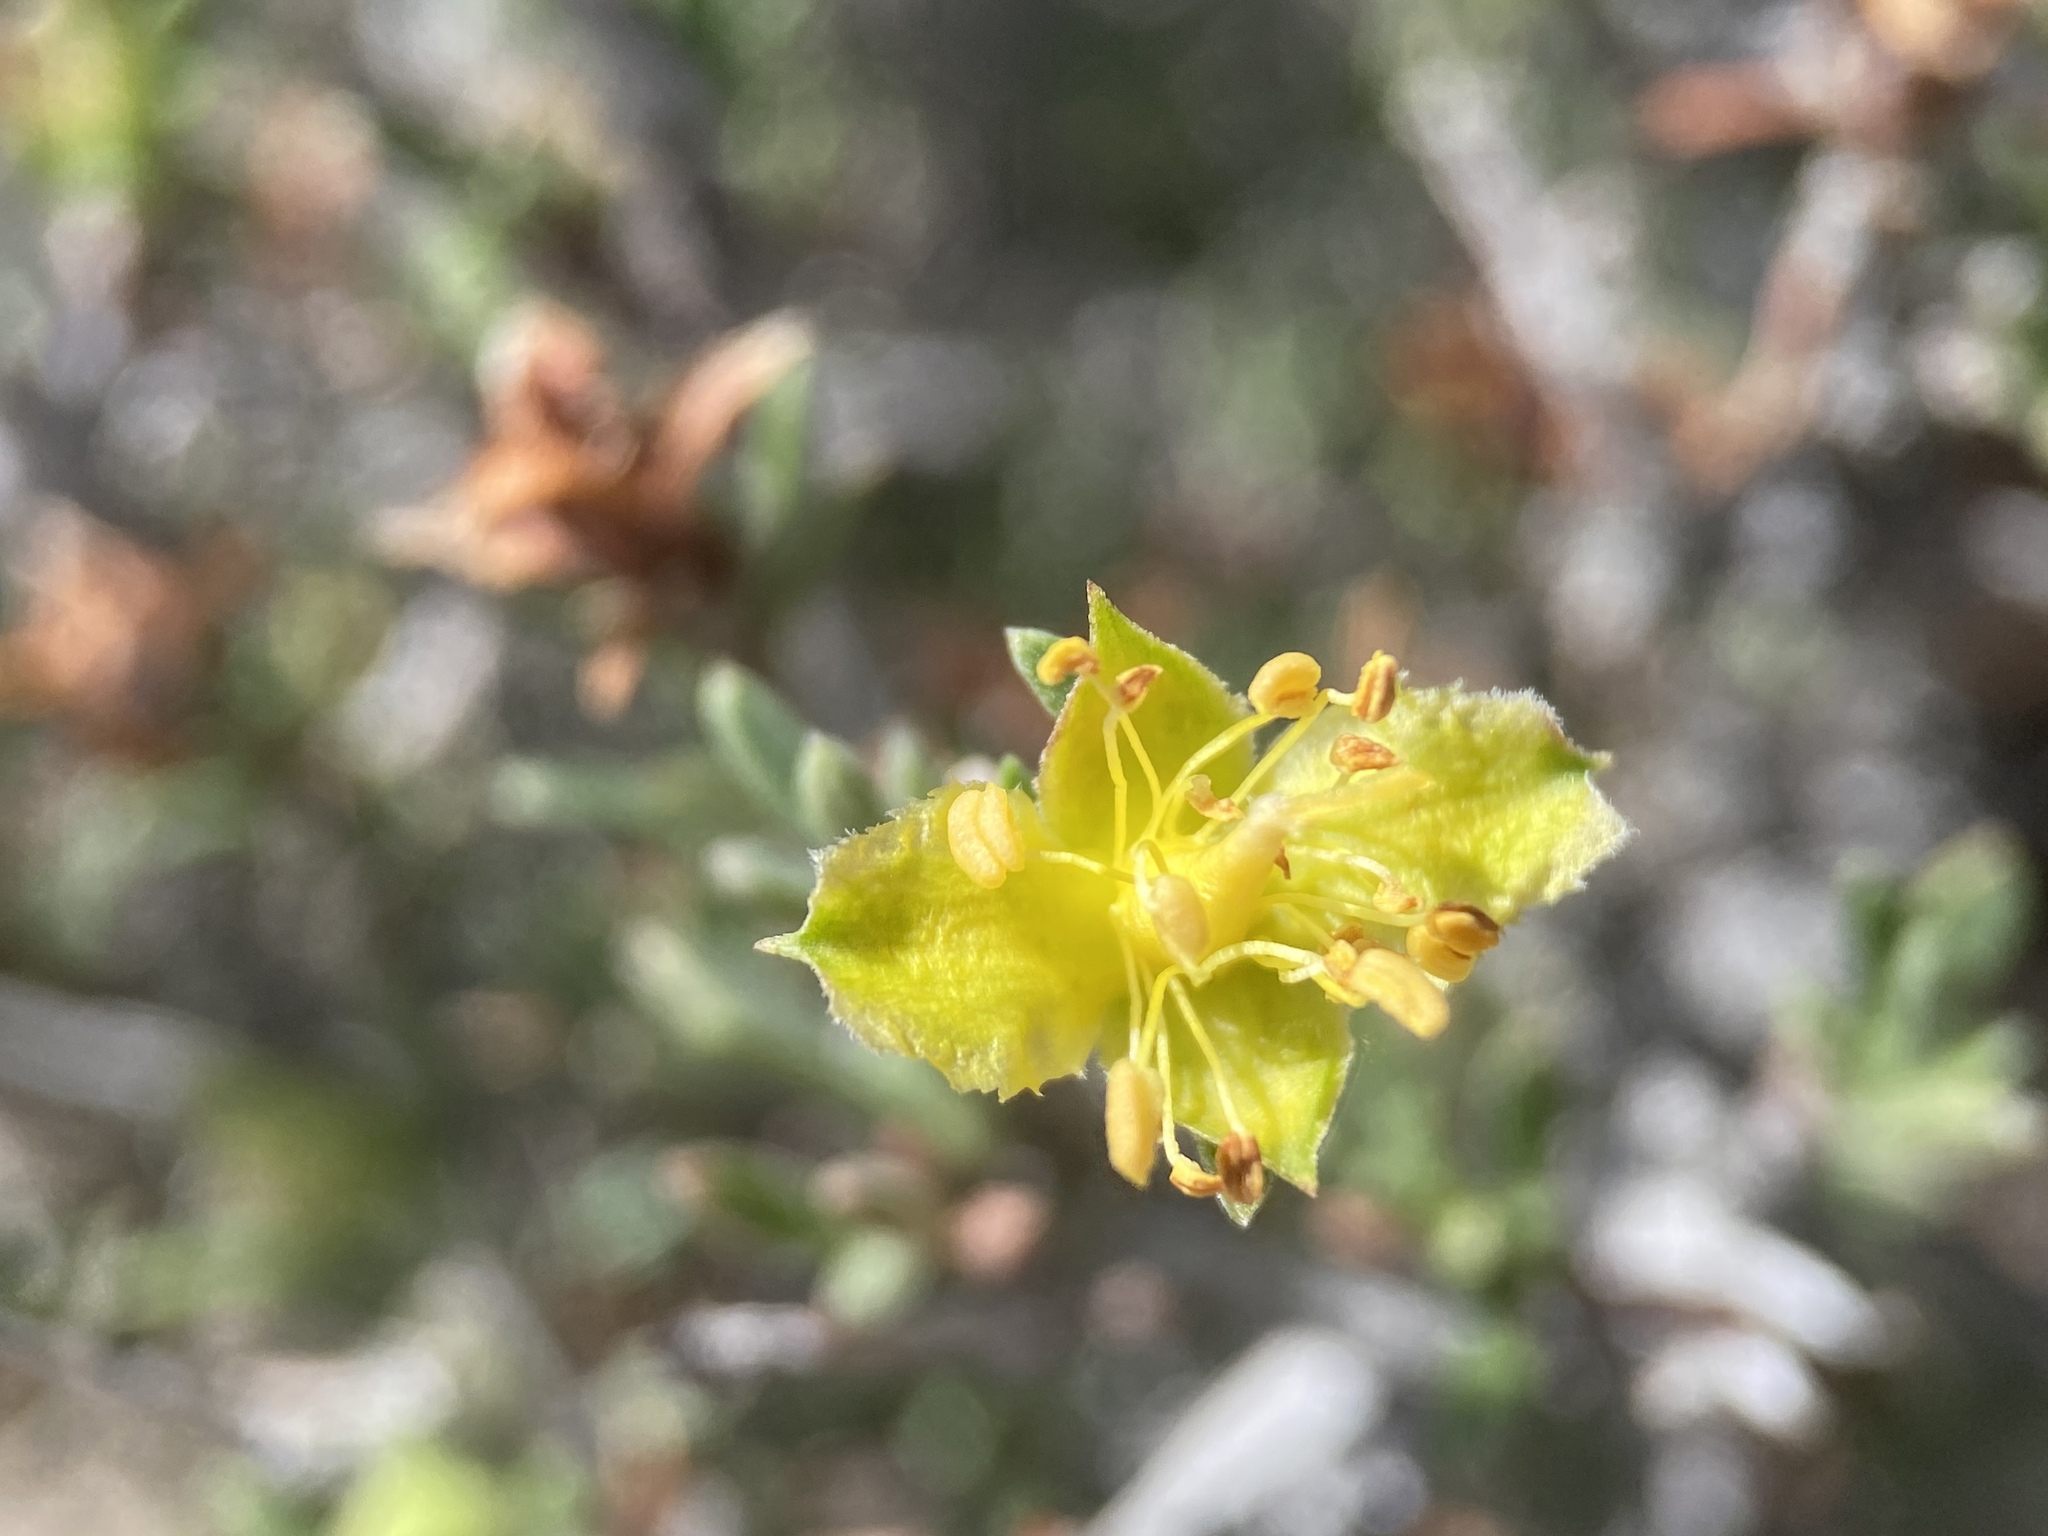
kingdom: Plantae
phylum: Tracheophyta
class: Magnoliopsida
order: Rosales
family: Rosaceae
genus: Coleogyne
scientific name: Coleogyne ramosissima
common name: Blackbrush
